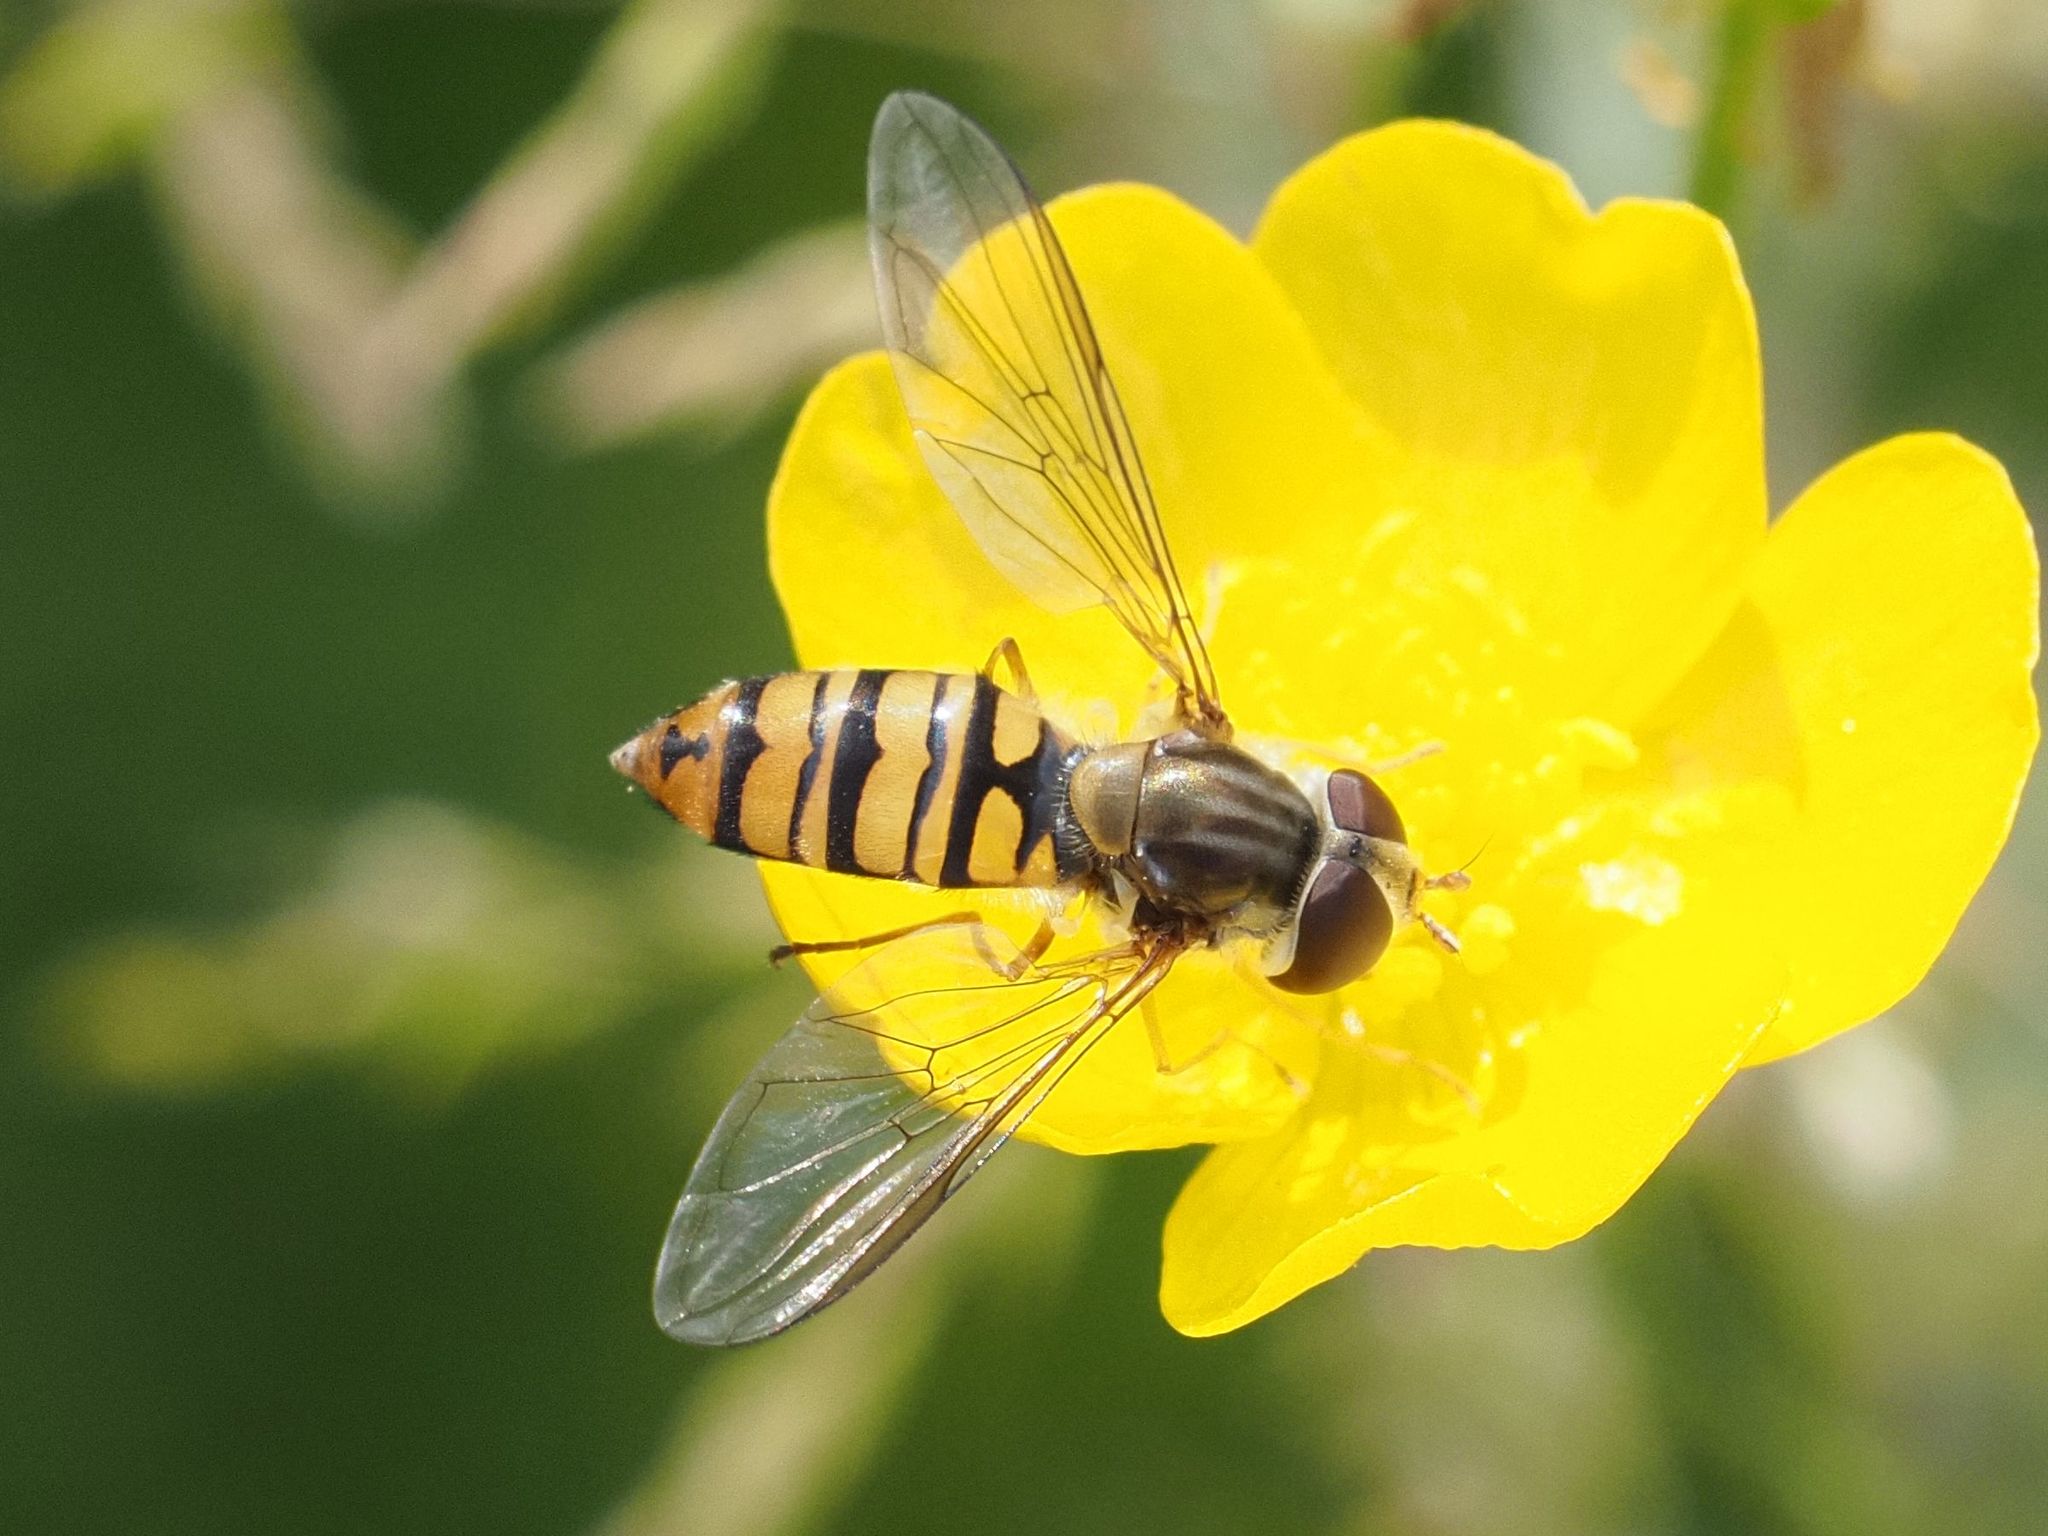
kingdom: Animalia
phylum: Arthropoda
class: Insecta
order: Diptera
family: Syrphidae
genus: Episyrphus
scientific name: Episyrphus balteatus
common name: Marmalade hoverfly
